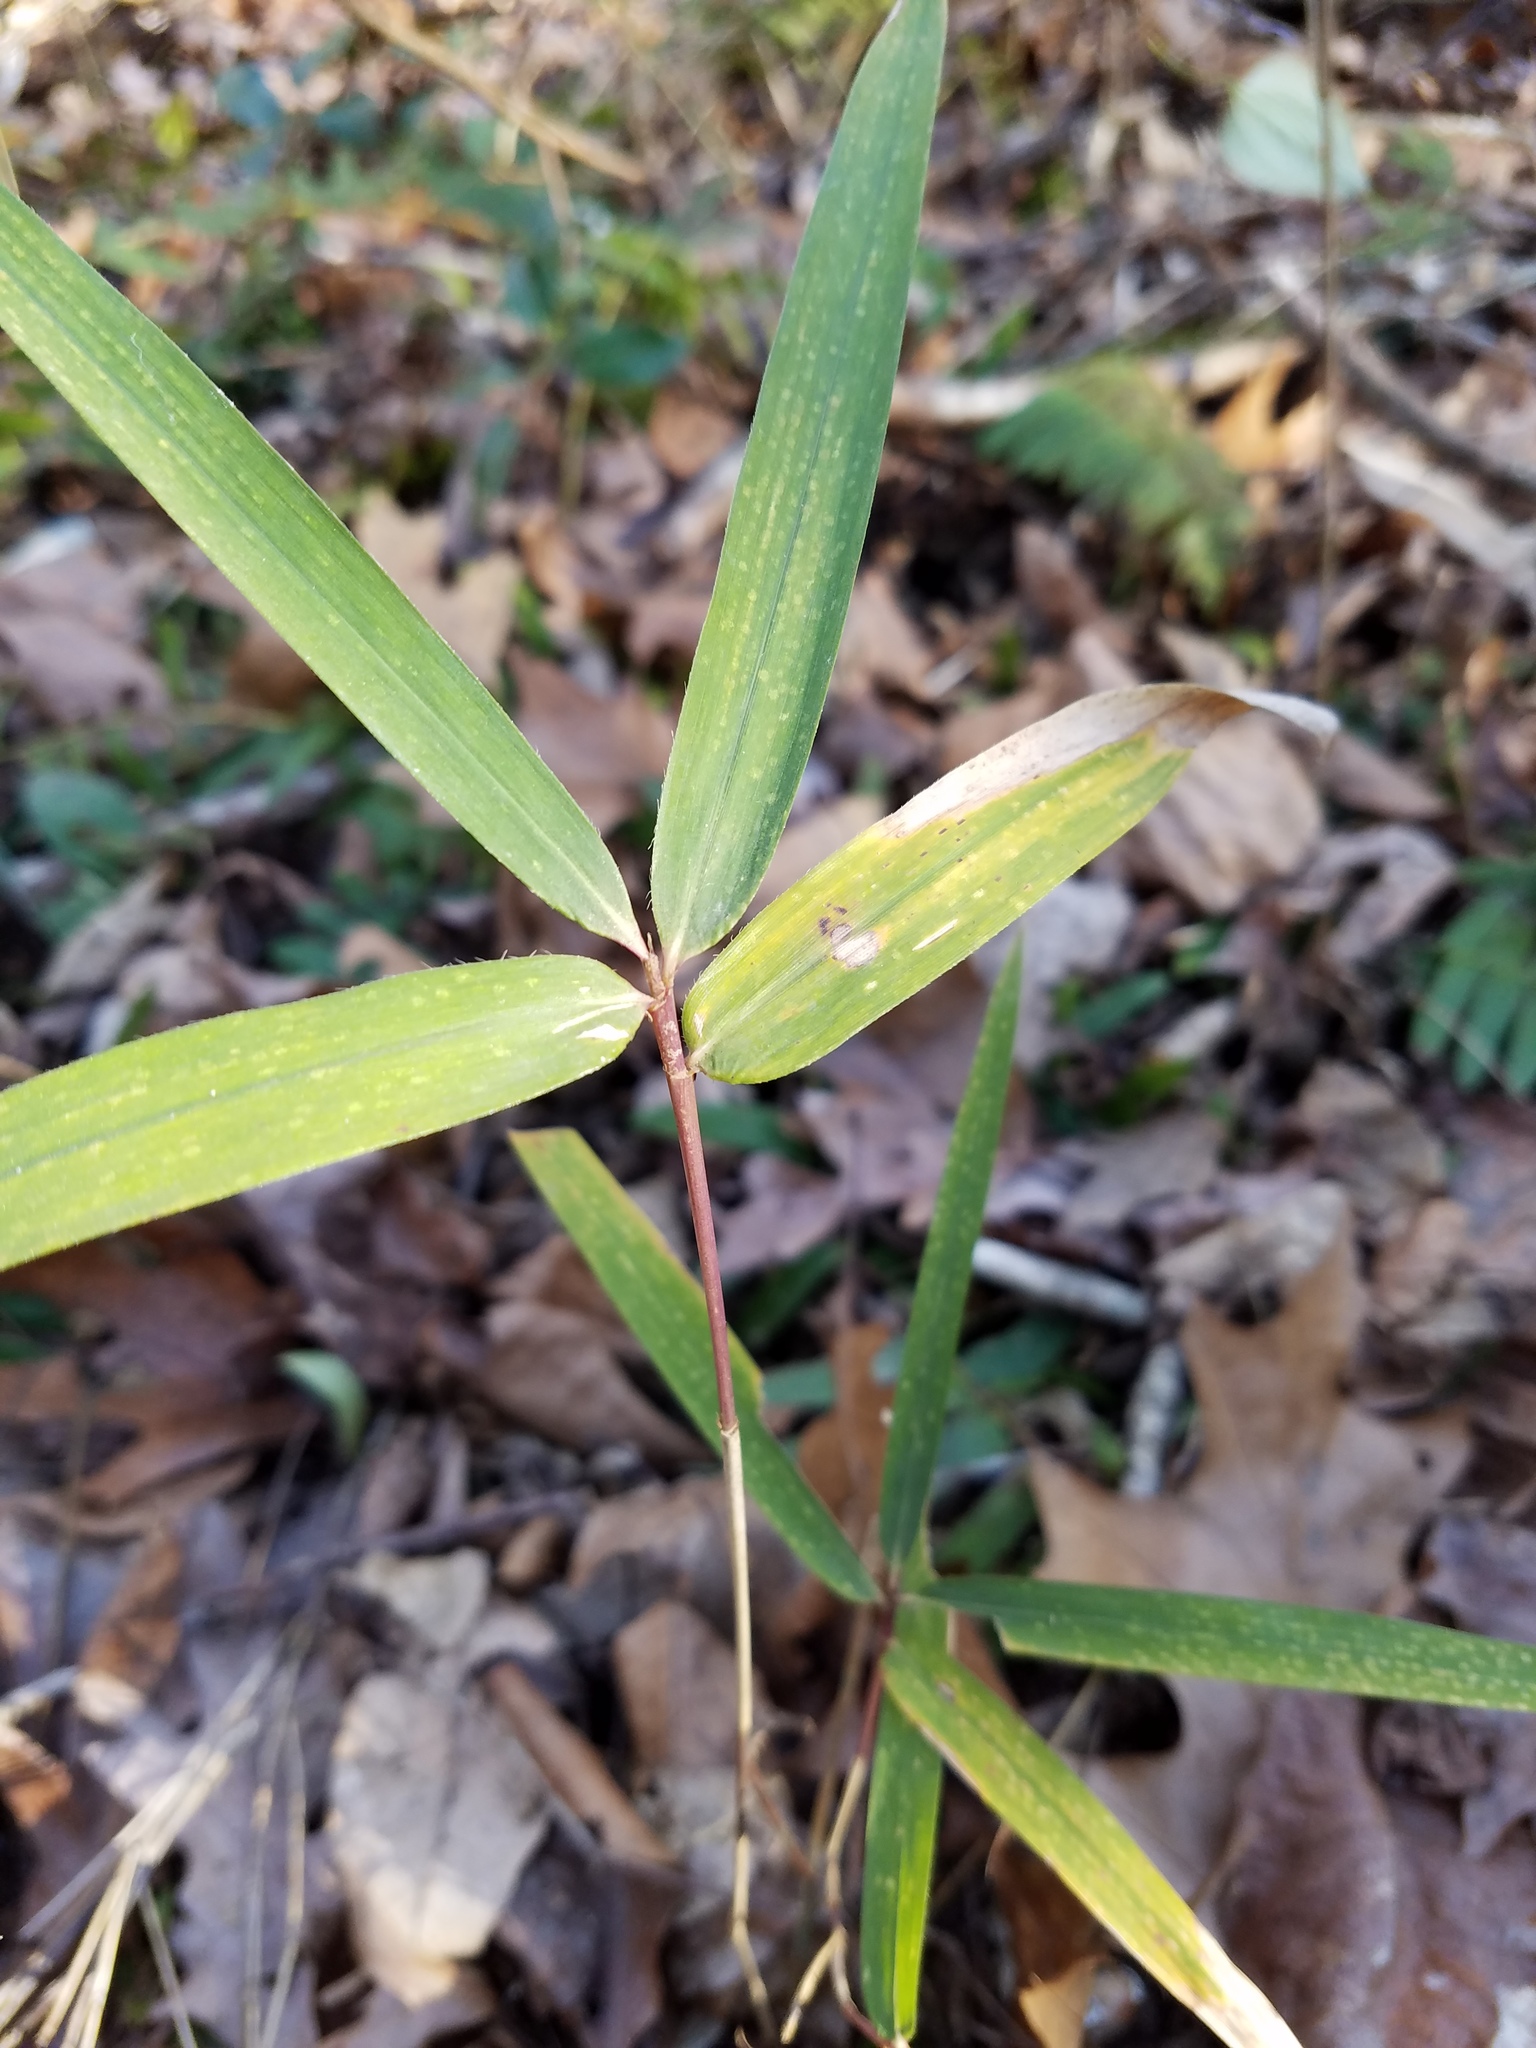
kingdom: Plantae
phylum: Tracheophyta
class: Liliopsida
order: Poales
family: Poaceae
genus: Arundinaria
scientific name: Arundinaria gigantea
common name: Giant cane
